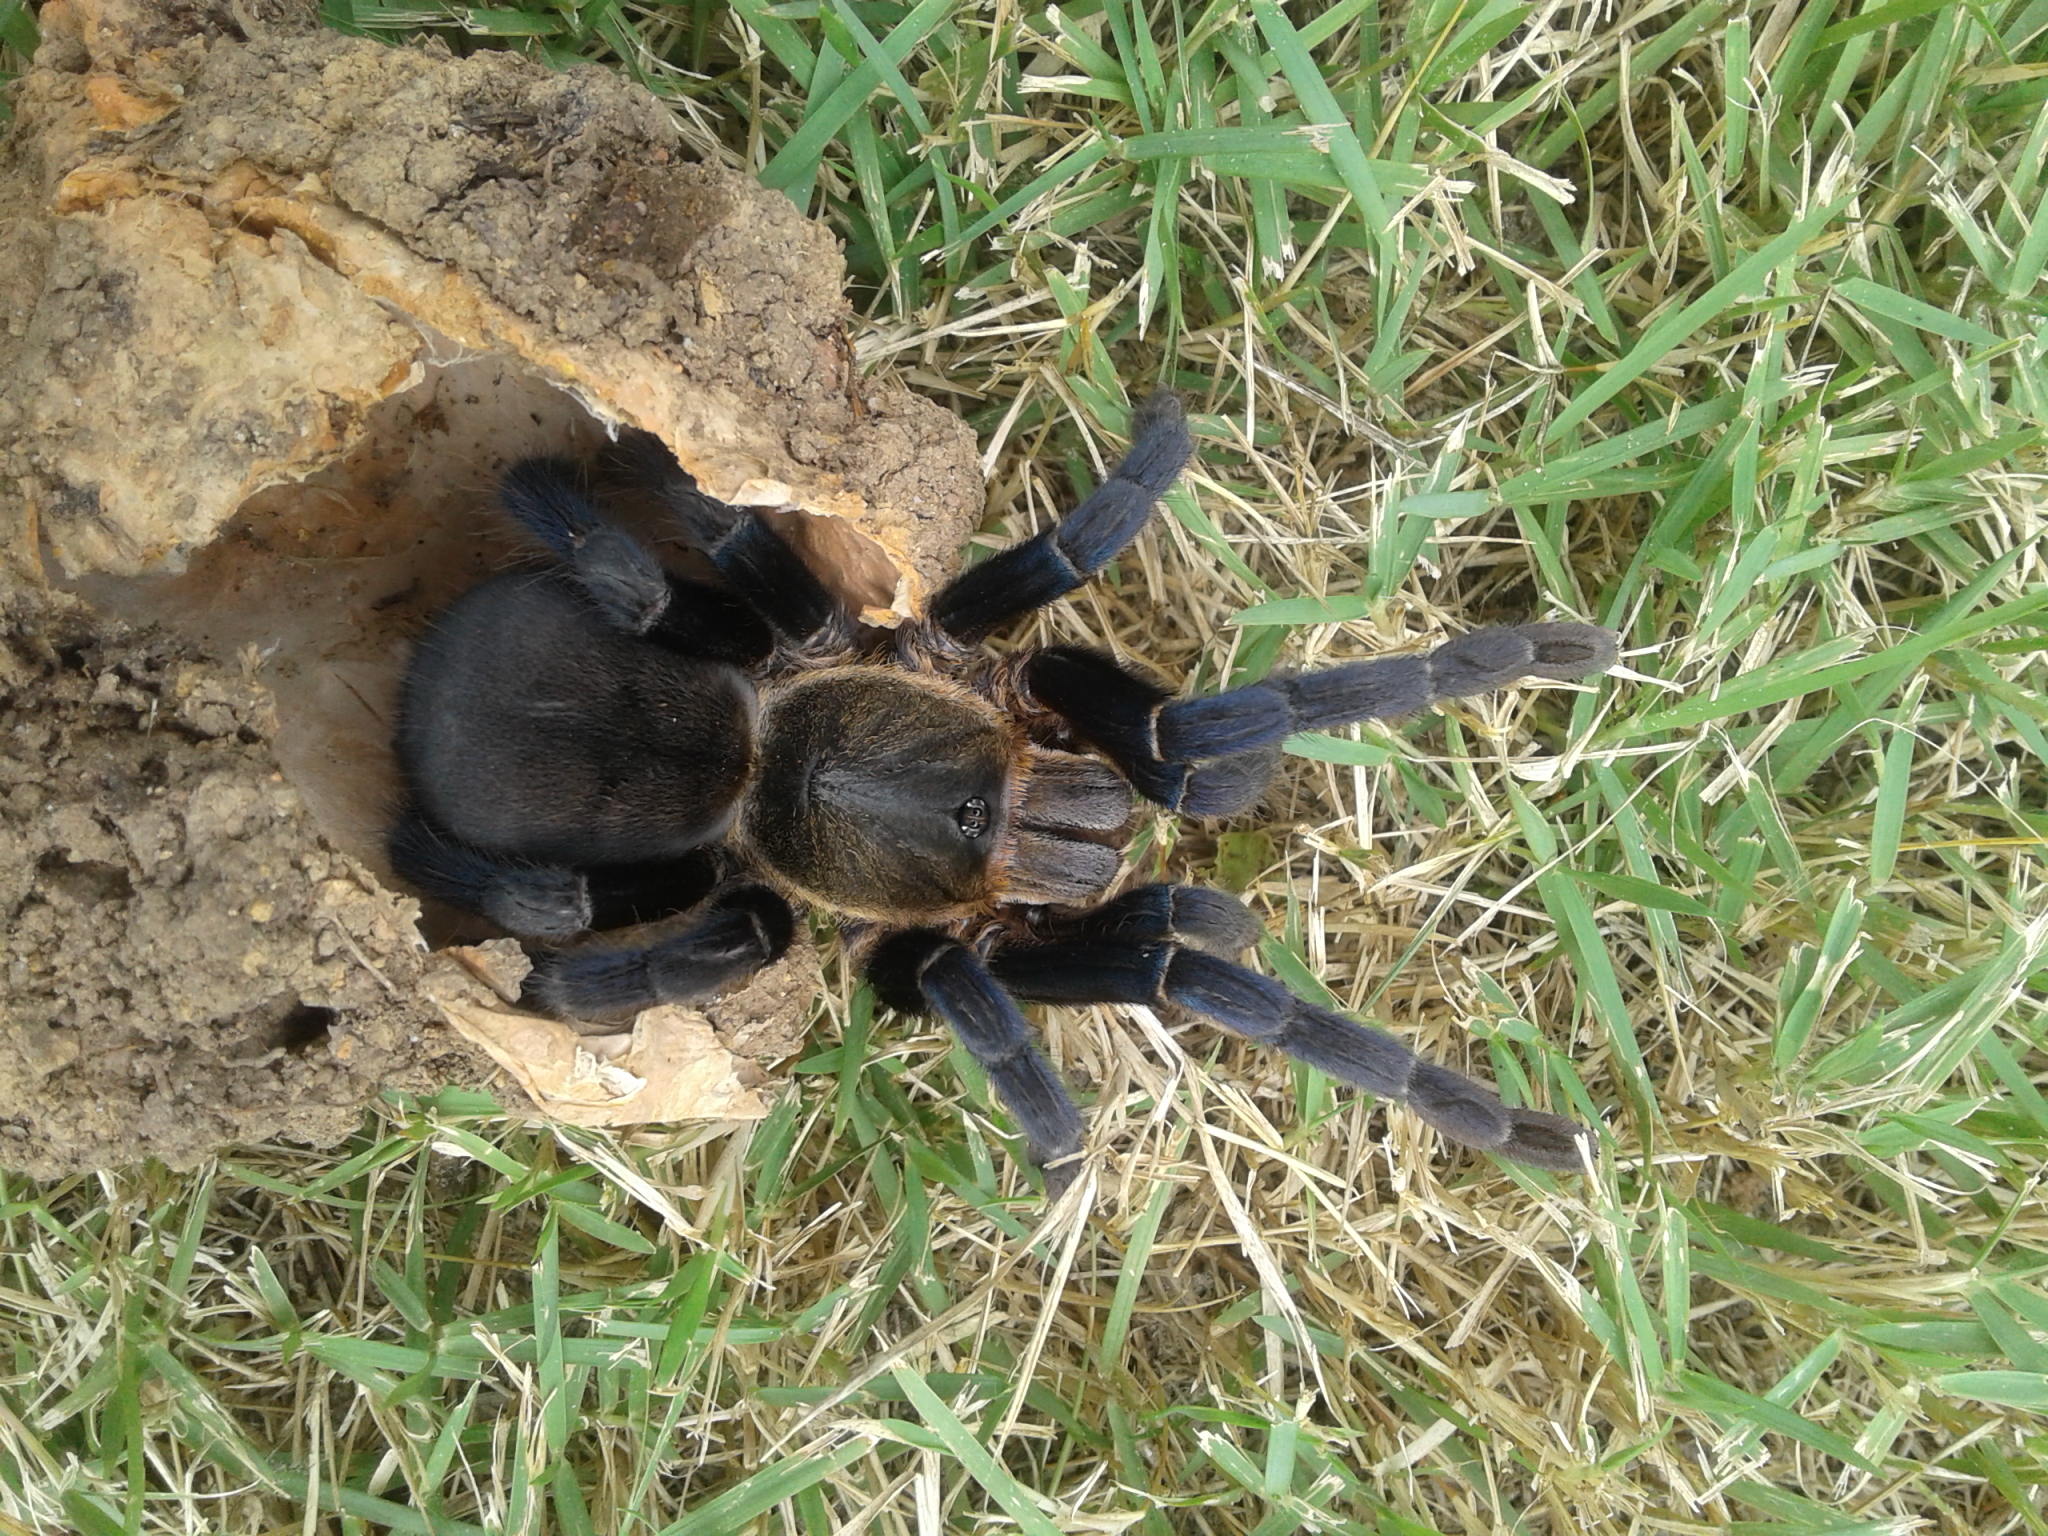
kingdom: Animalia
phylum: Arthropoda
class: Arachnida
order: Araneae
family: Theraphosidae
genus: Cyriopagopus
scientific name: Cyriopagopus lividus
